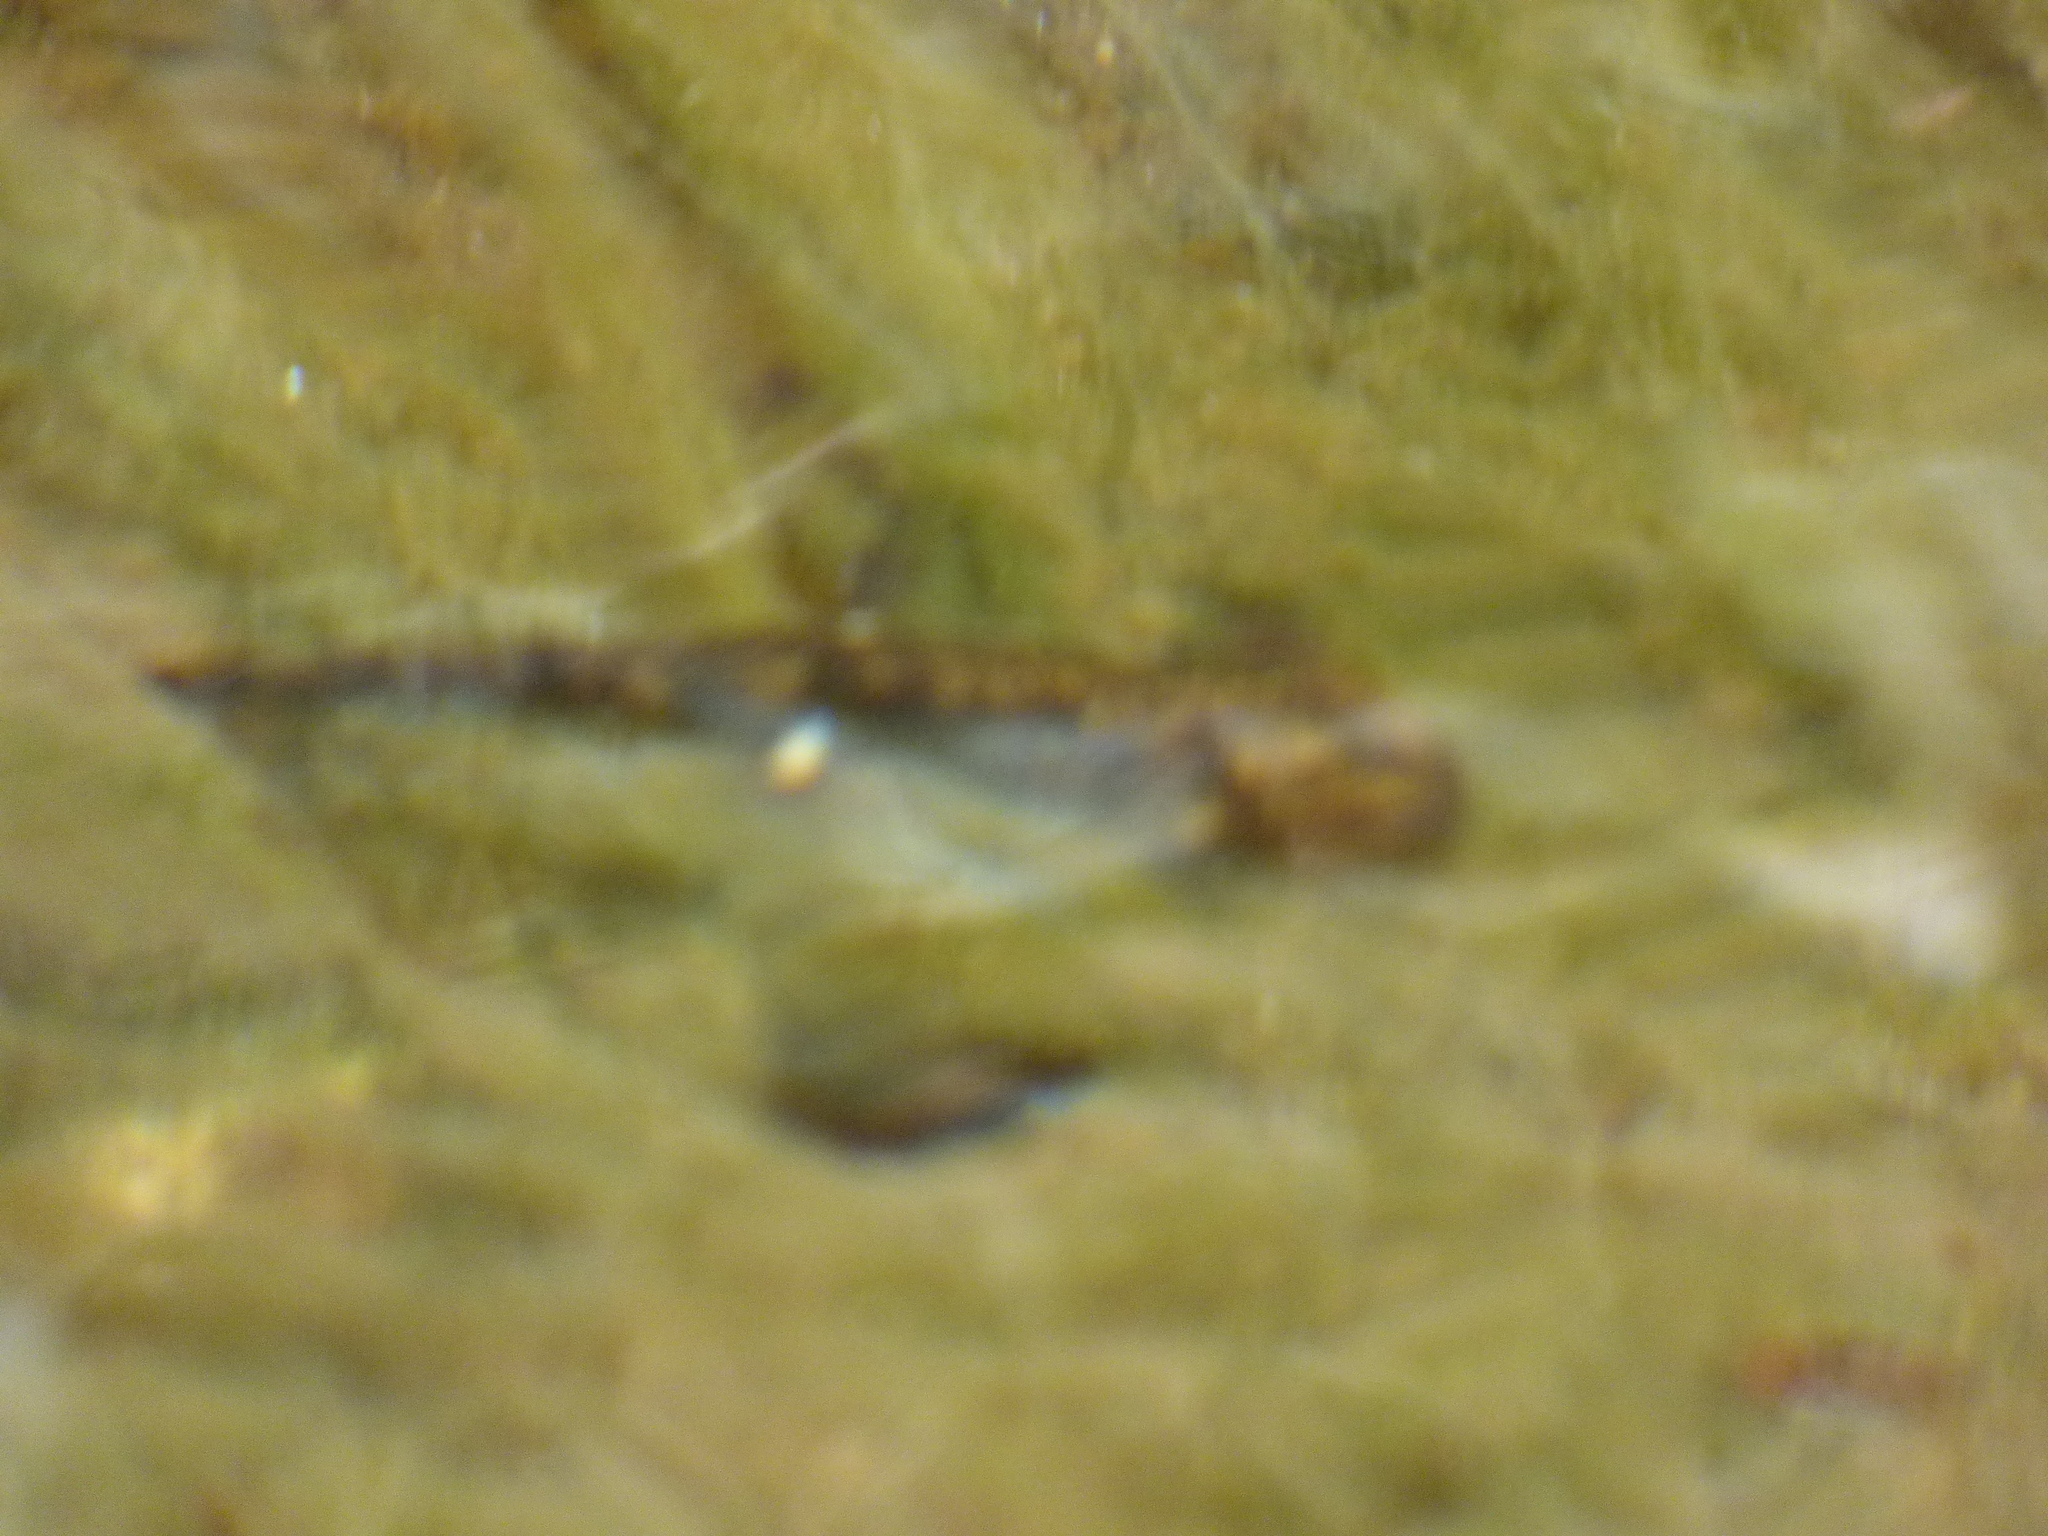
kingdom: Animalia
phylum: Chordata
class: Amphibia
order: Caudata
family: Salamandridae
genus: Salamandra
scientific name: Salamandra salamandra
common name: Fire salamander
